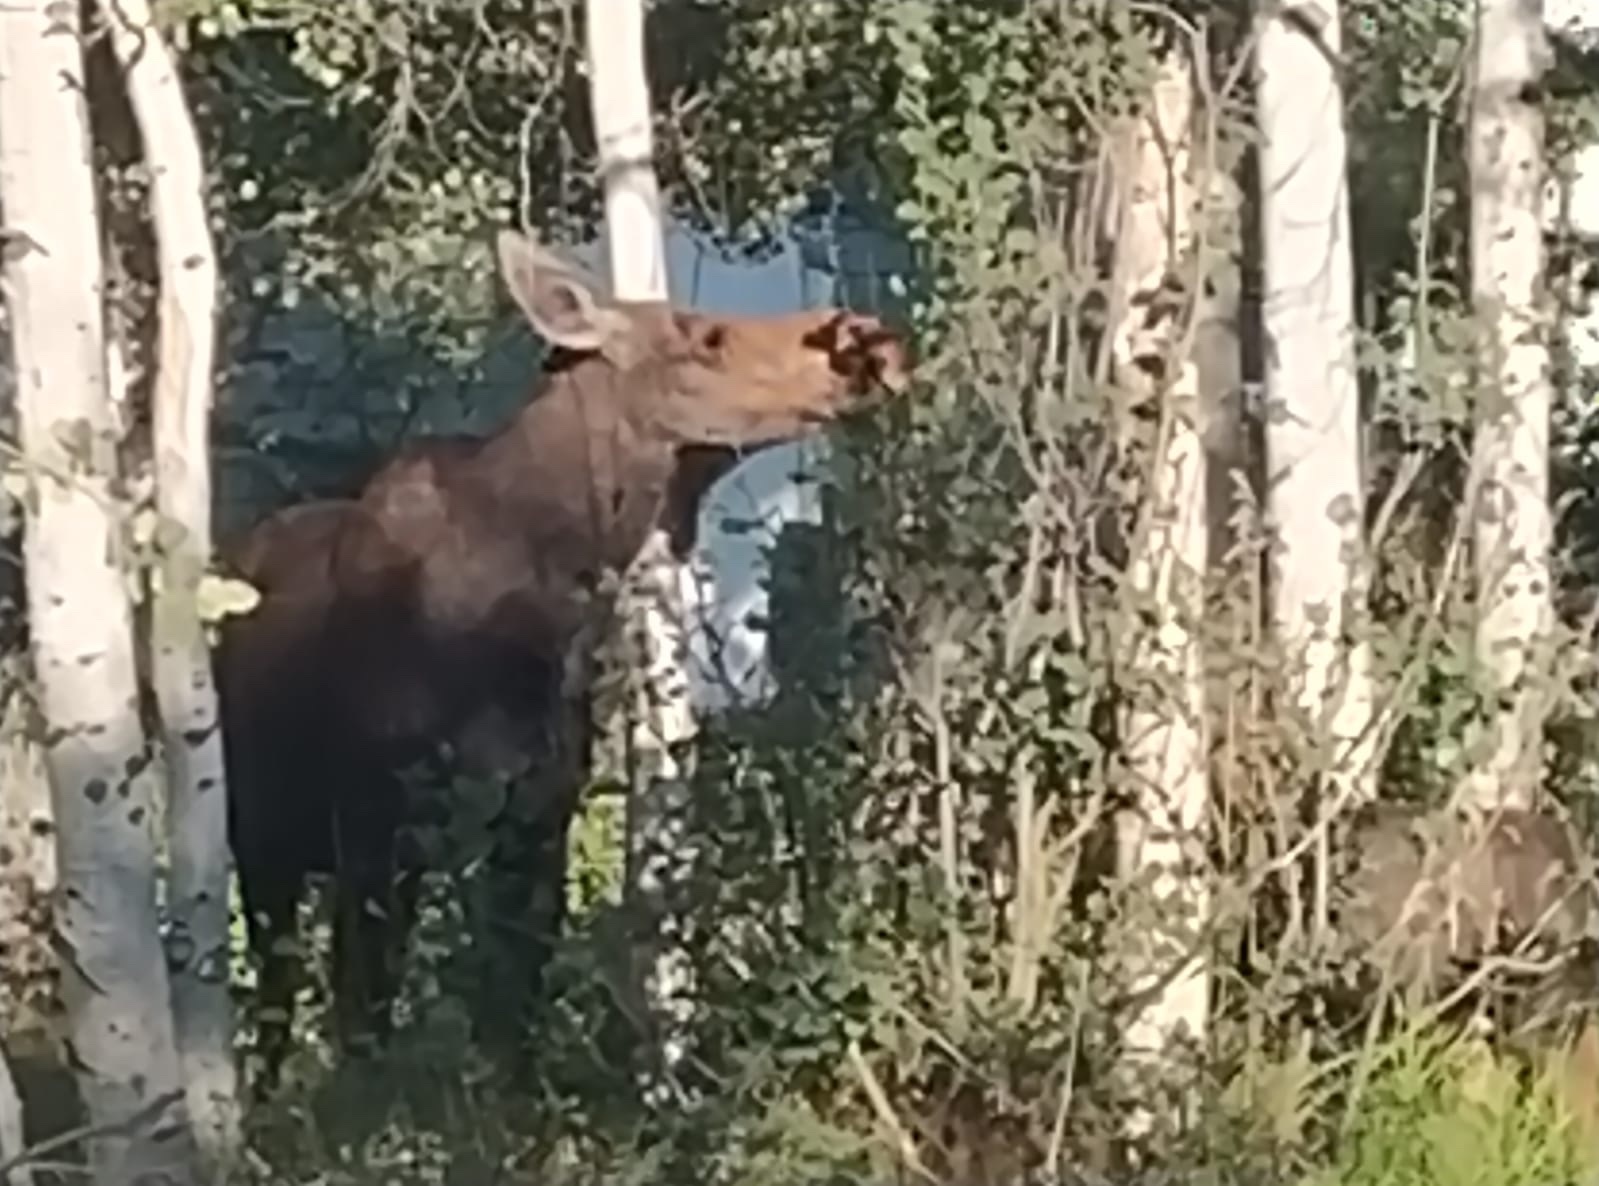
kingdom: Animalia
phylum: Chordata
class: Mammalia
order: Artiodactyla
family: Cervidae
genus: Alces
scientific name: Alces alces
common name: Moose
